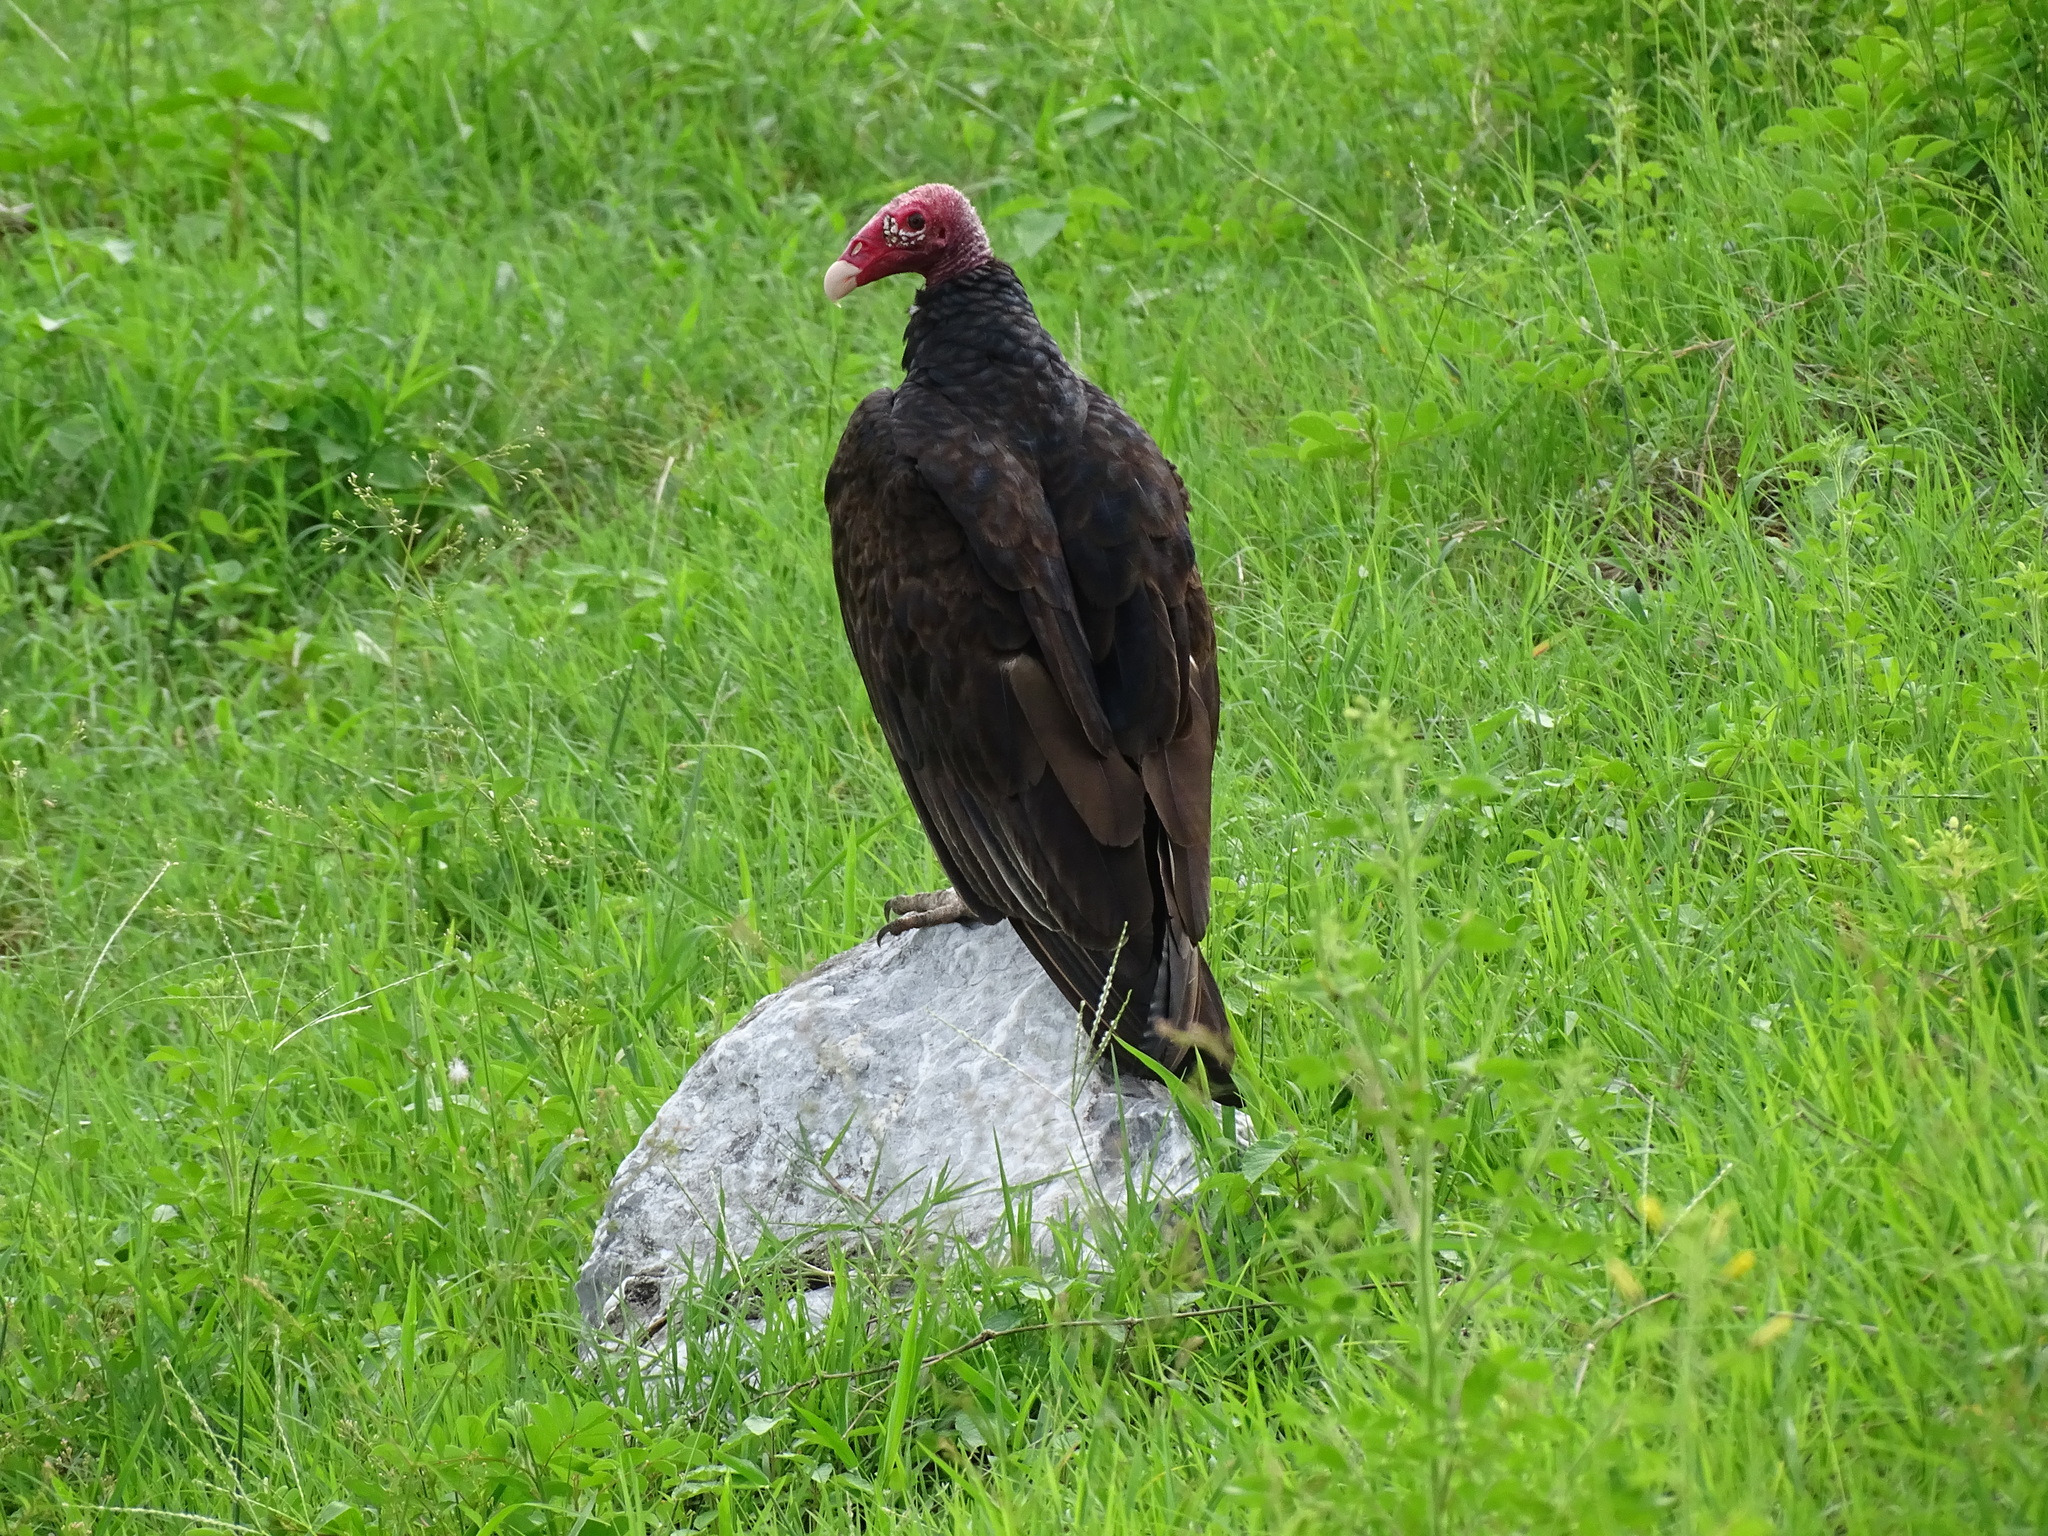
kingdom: Animalia
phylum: Chordata
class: Aves
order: Accipitriformes
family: Cathartidae
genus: Cathartes
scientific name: Cathartes aura
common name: Turkey vulture
